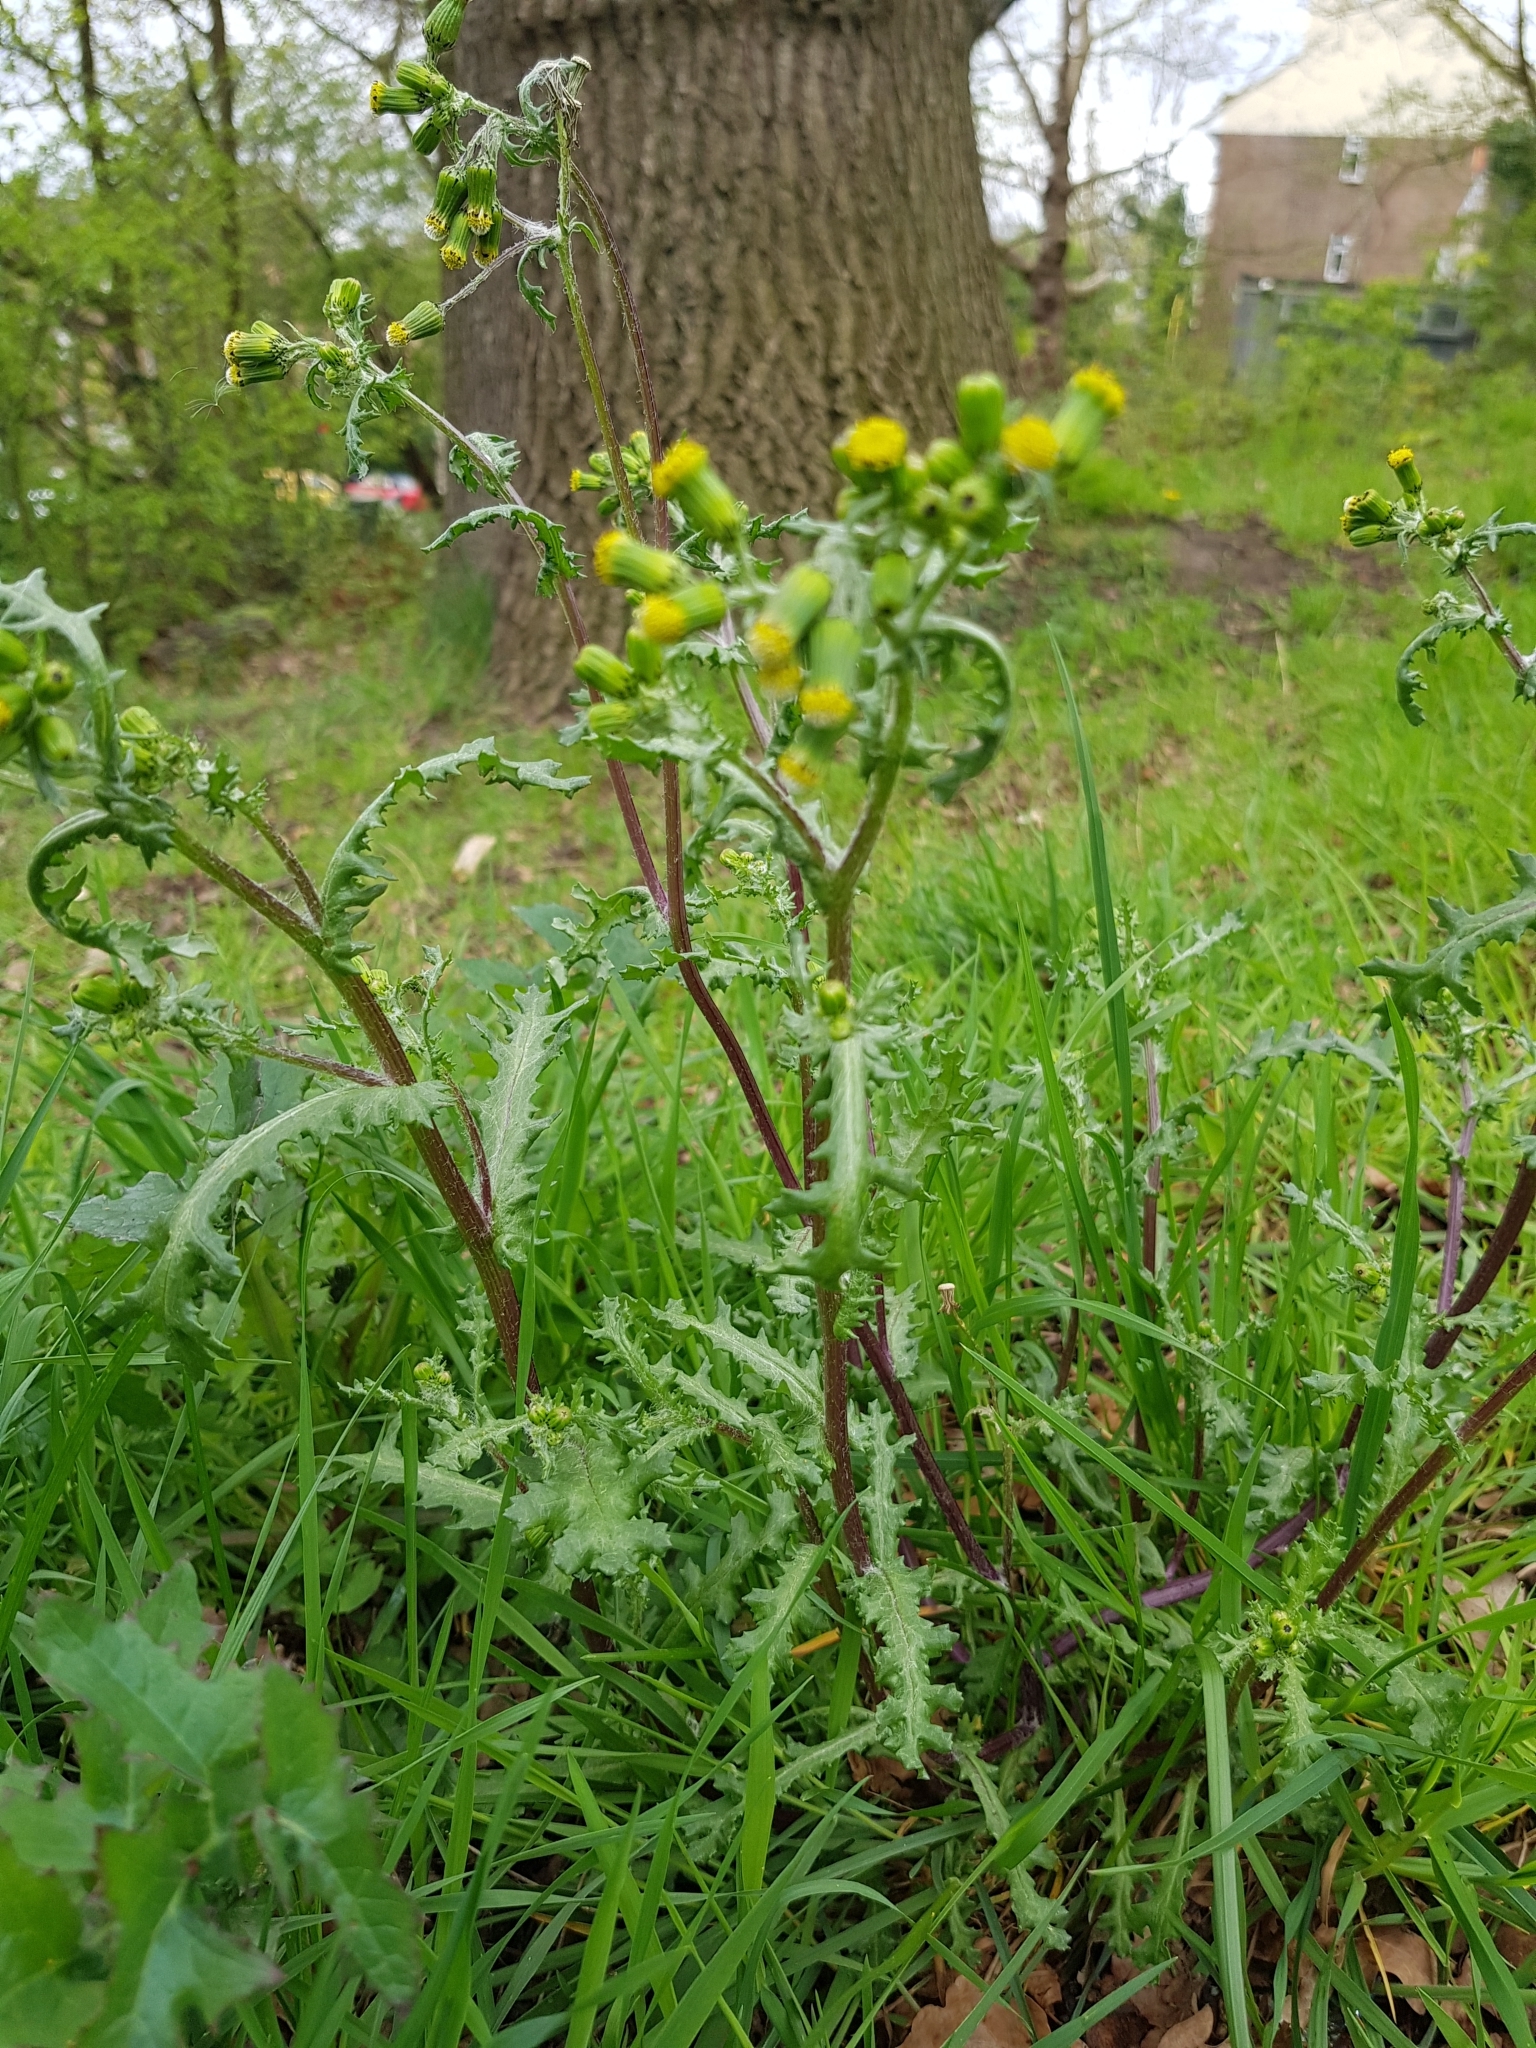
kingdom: Plantae
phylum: Tracheophyta
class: Magnoliopsida
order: Asterales
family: Asteraceae
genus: Senecio
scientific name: Senecio vulgaris
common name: Old-man-in-the-spring
